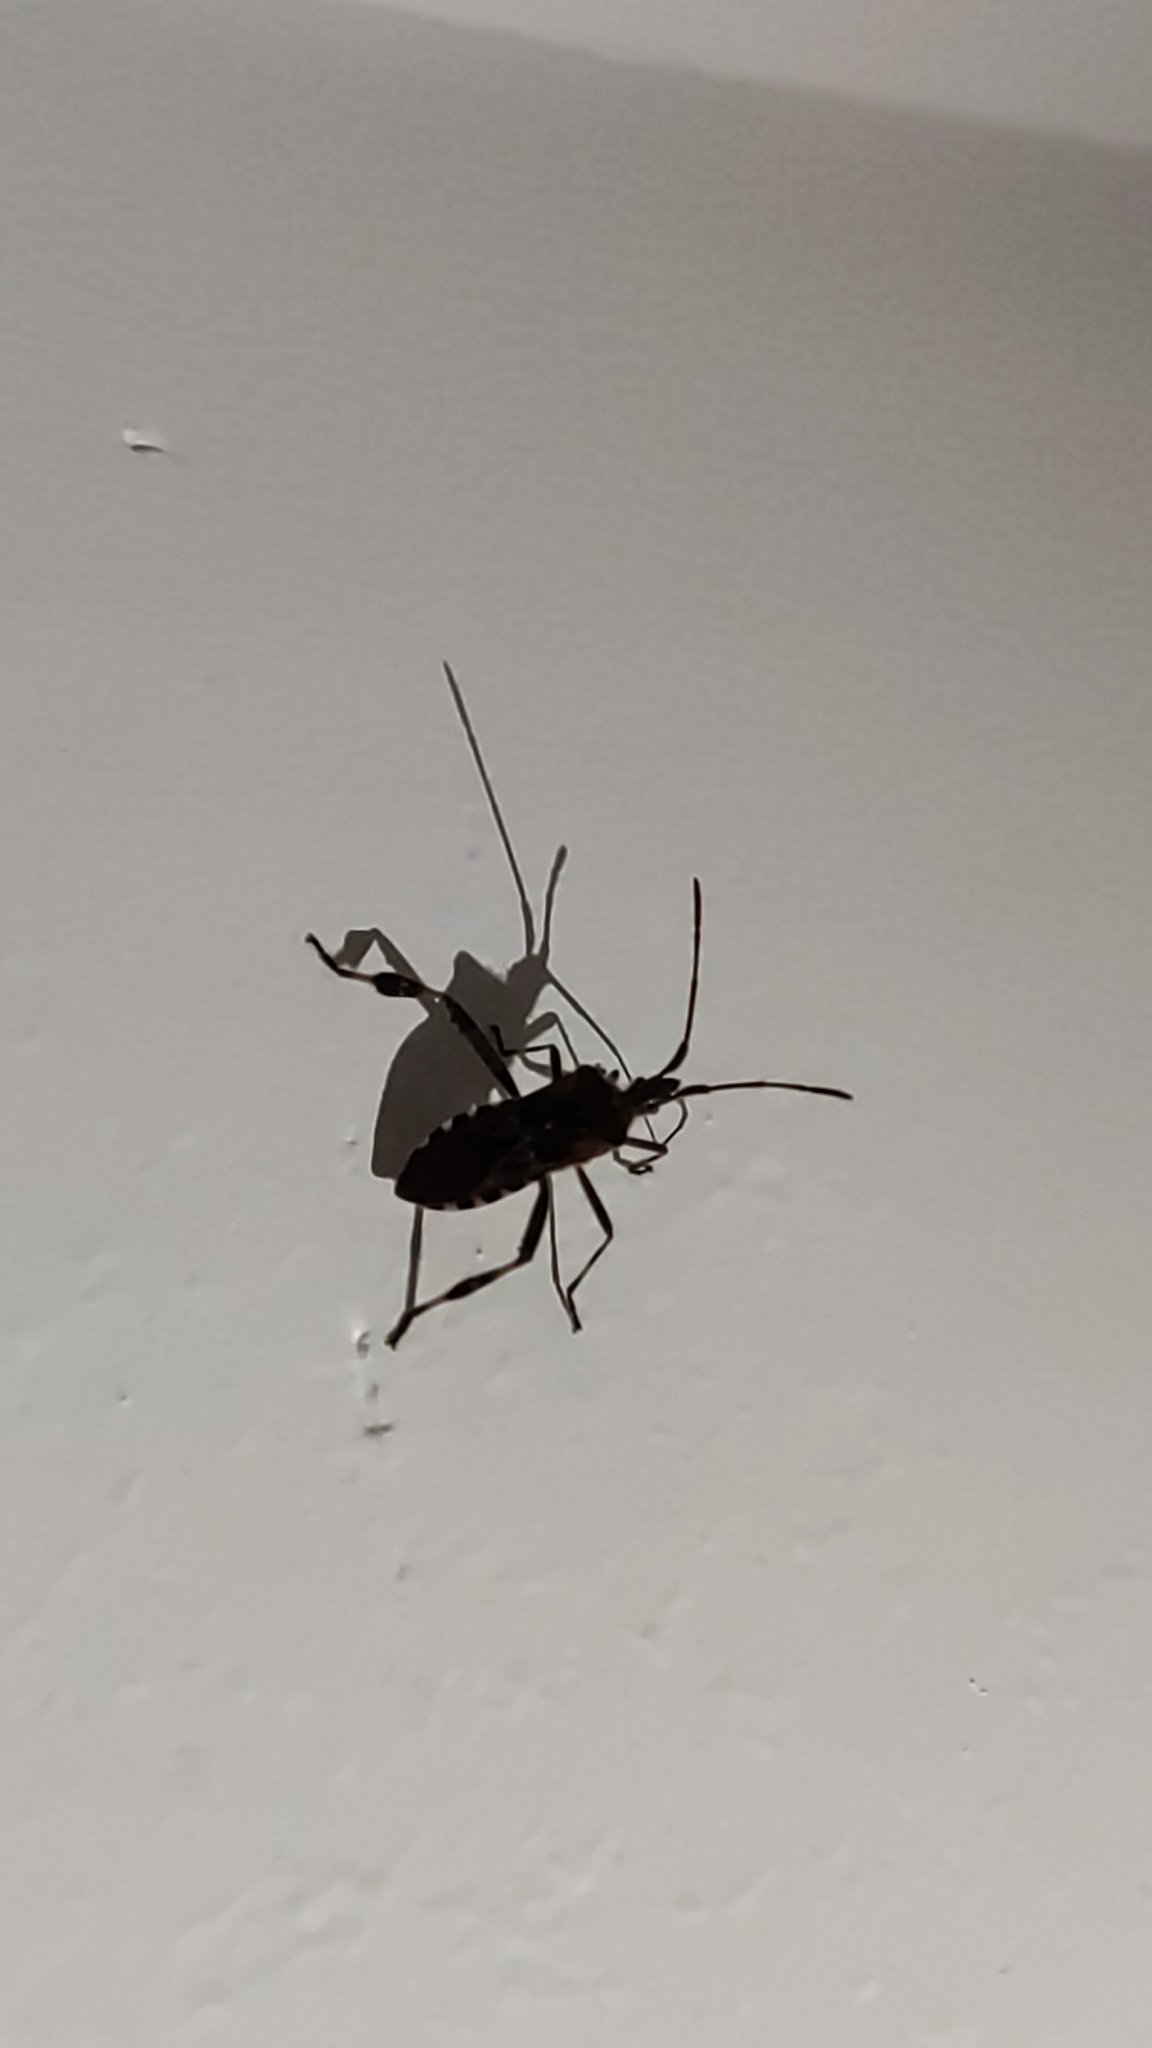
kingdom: Animalia
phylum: Arthropoda
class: Insecta
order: Hemiptera
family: Coreidae
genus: Leptoglossus
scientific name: Leptoglossus occidentalis
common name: Western conifer-seed bug
